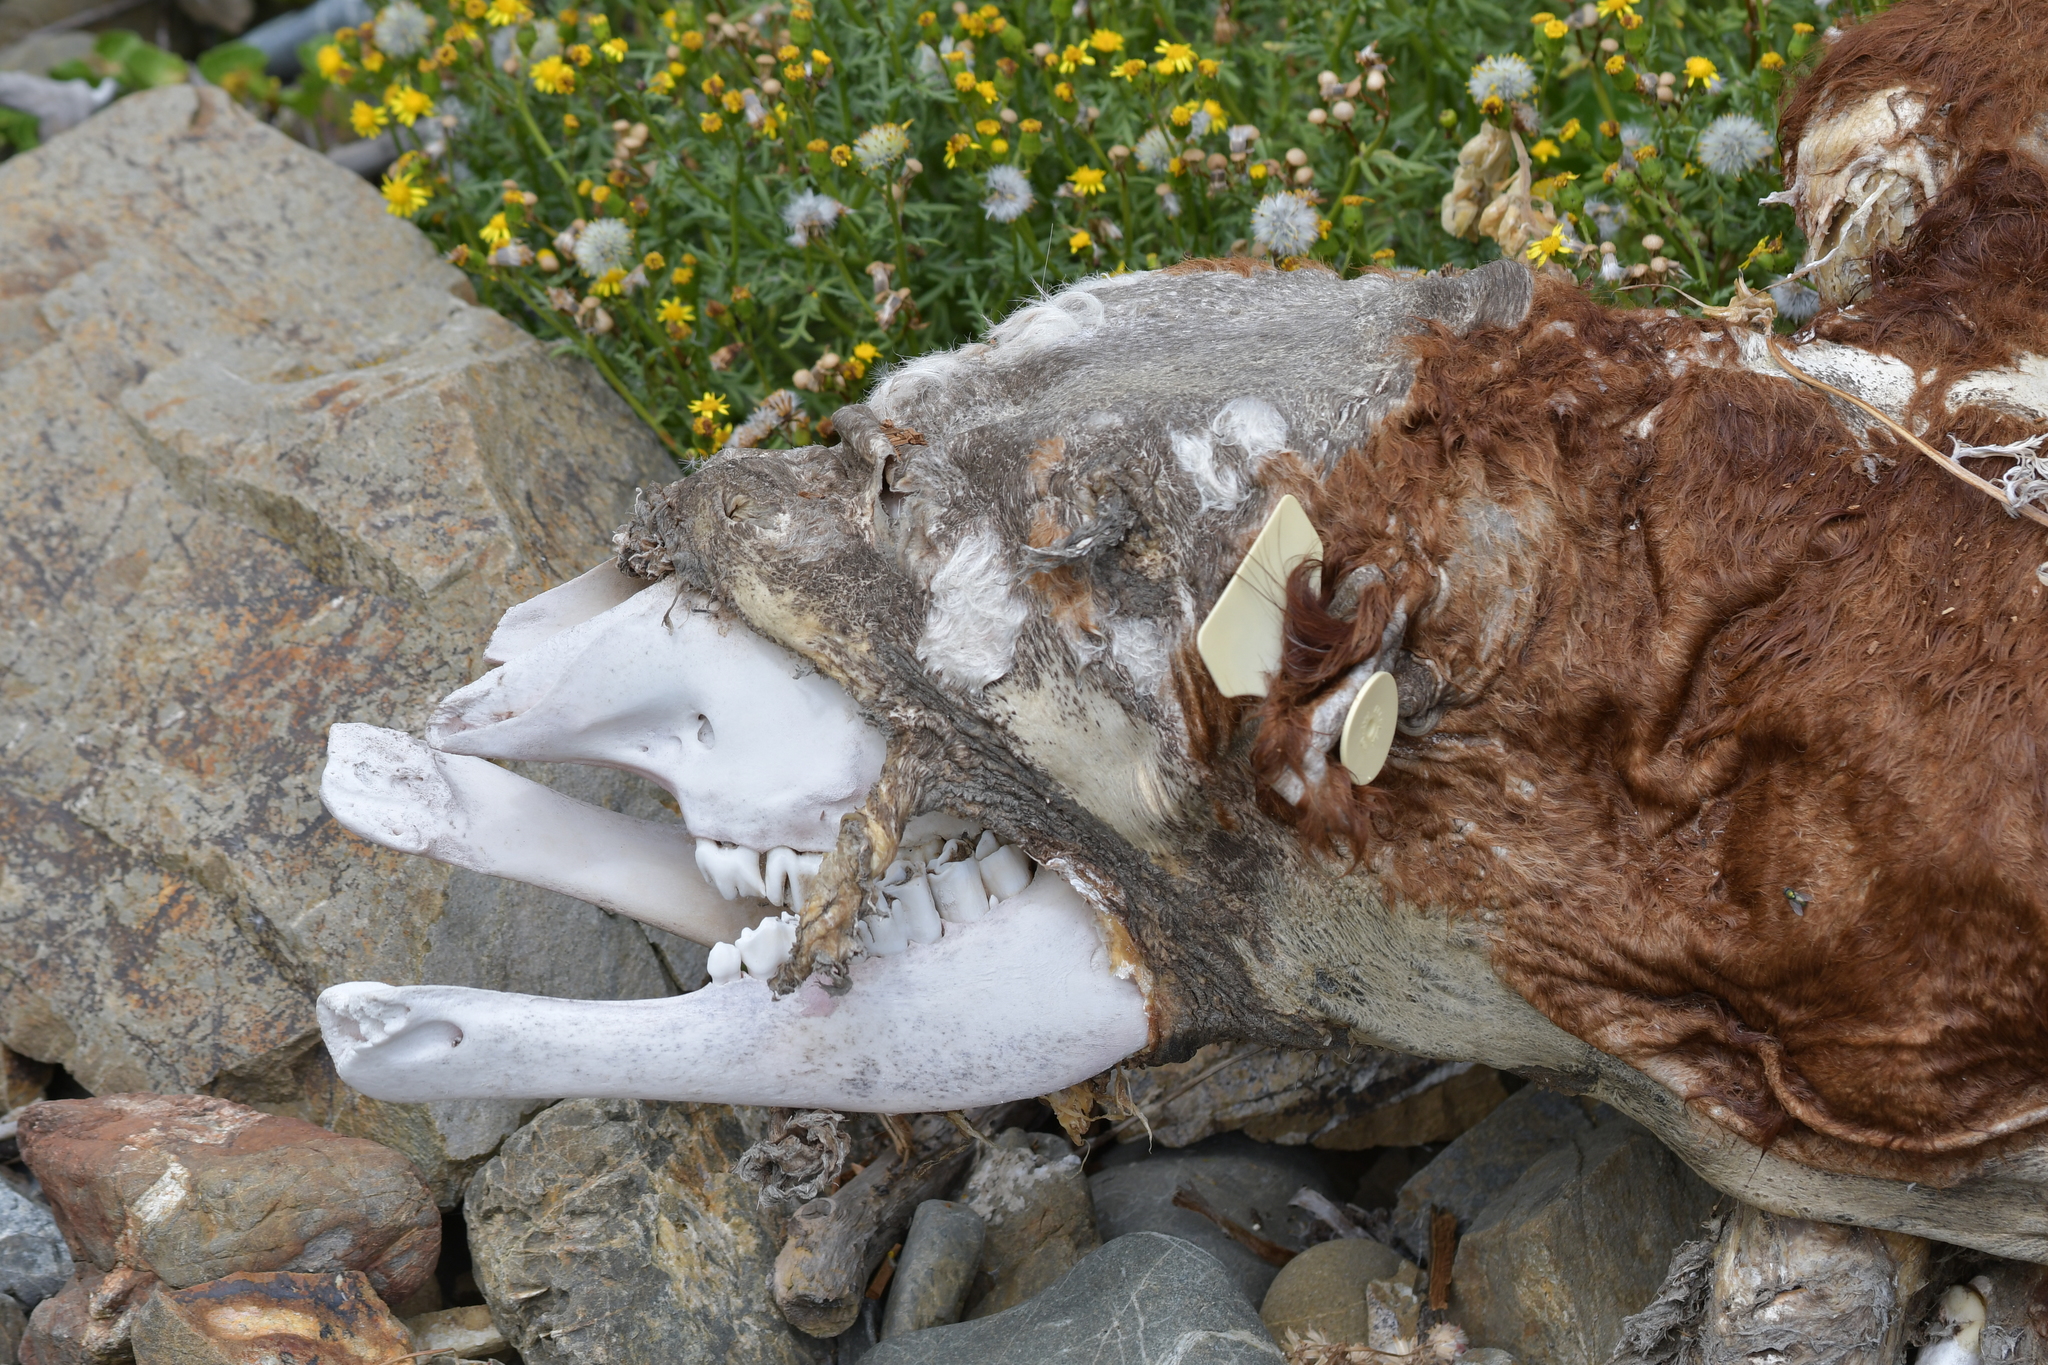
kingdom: Animalia
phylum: Chordata
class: Mammalia
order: Artiodactyla
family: Bovidae
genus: Bos
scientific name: Bos taurus
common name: Domesticated cattle
